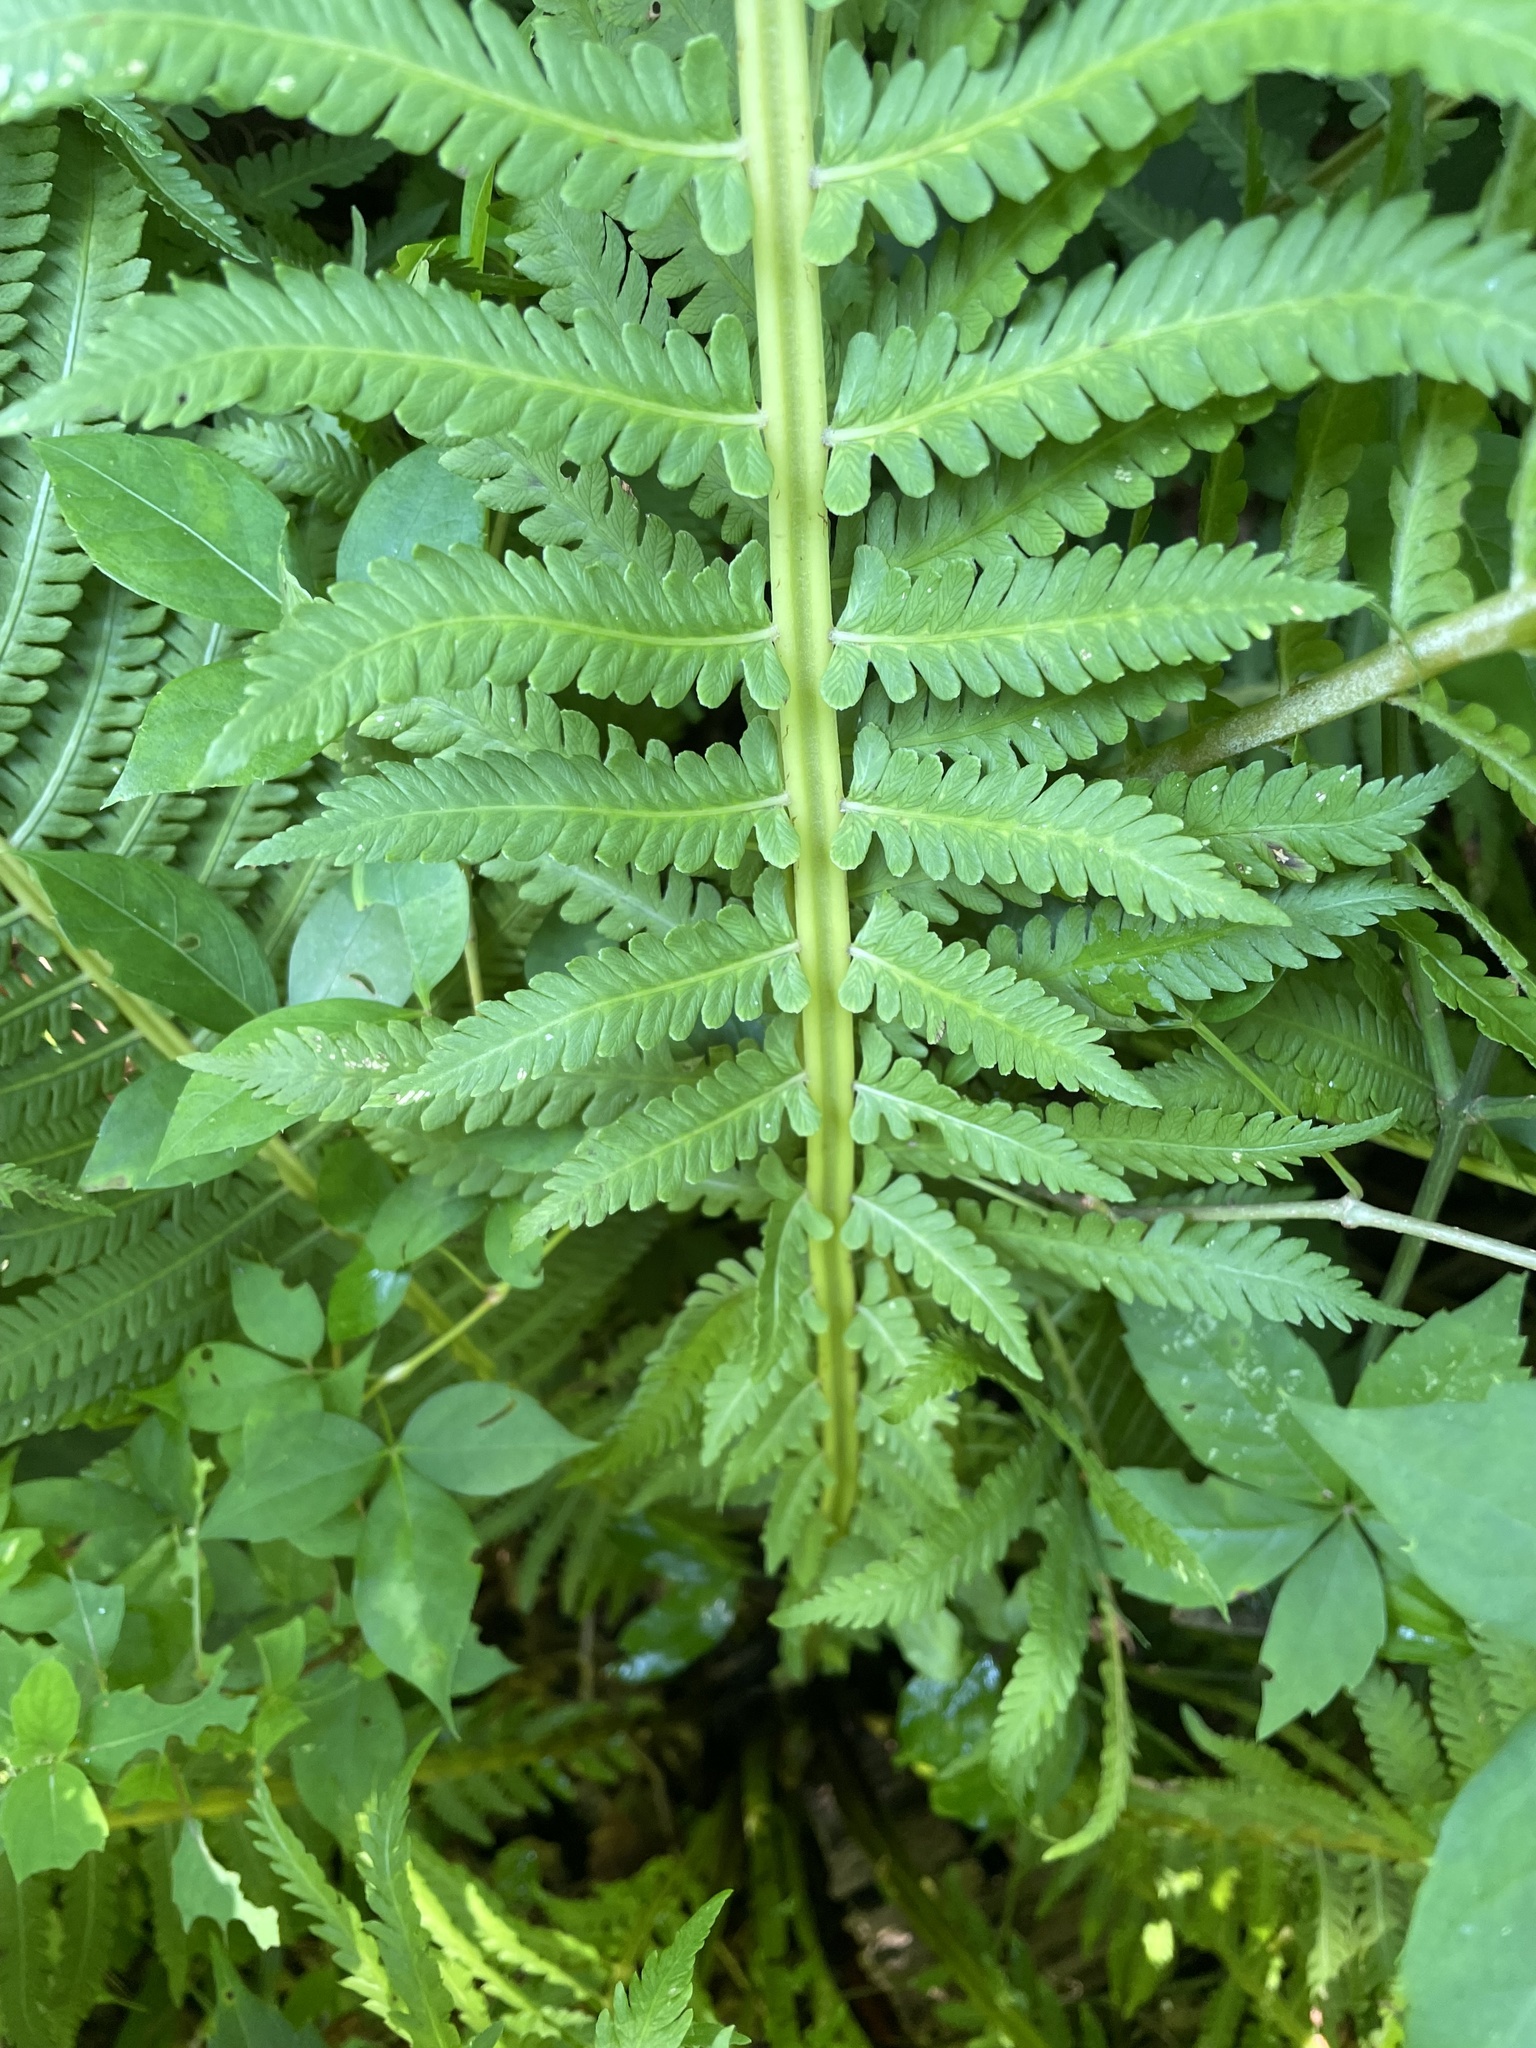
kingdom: Plantae
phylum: Tracheophyta
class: Polypodiopsida
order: Polypodiales
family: Onocleaceae
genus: Matteuccia
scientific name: Matteuccia struthiopteris
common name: Ostrich fern
